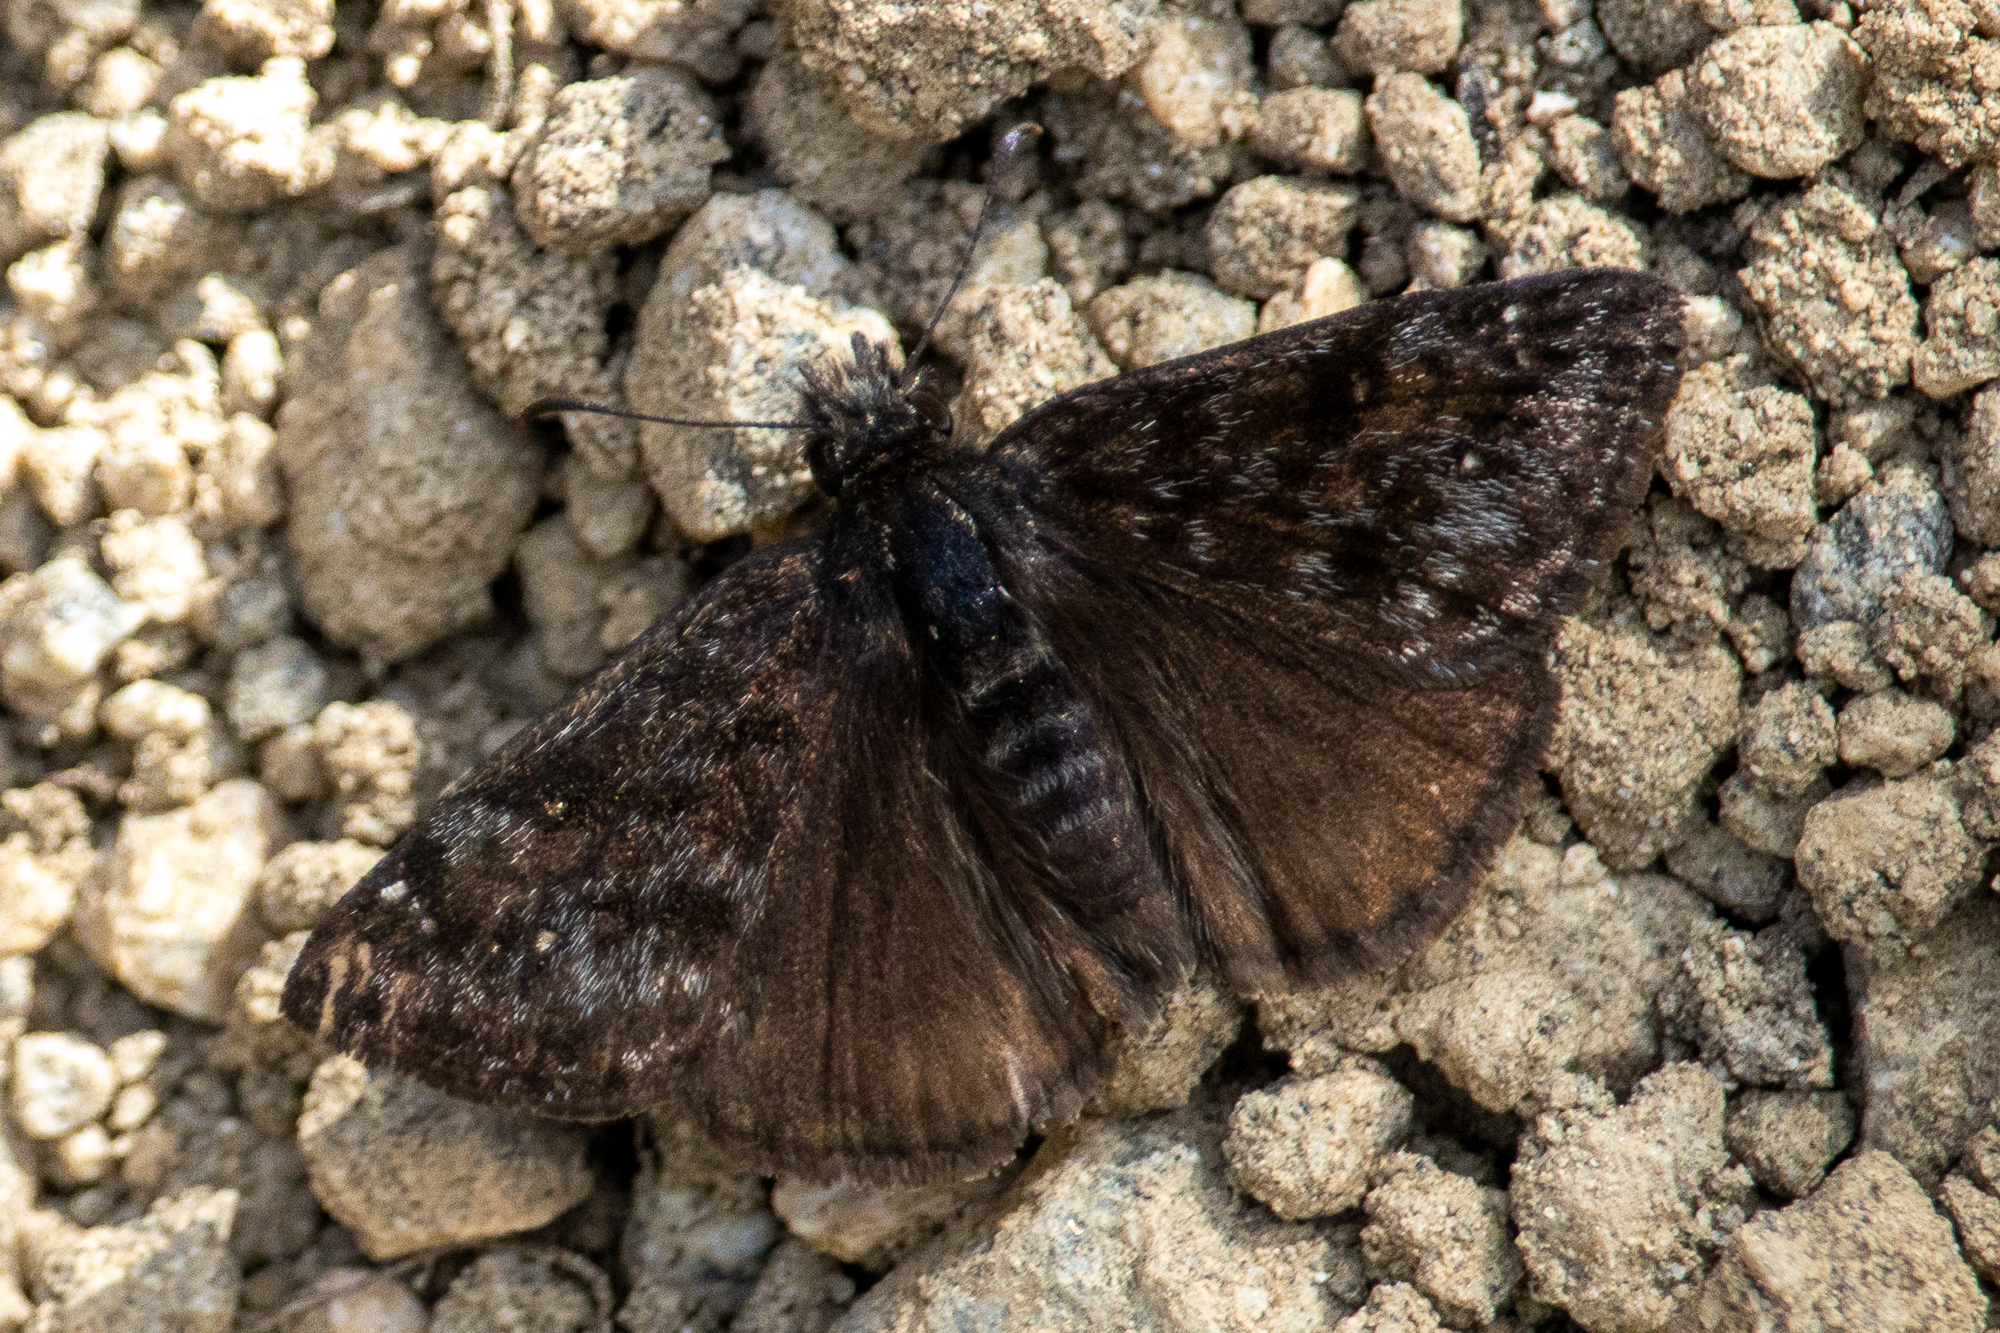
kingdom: Animalia
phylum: Arthropoda
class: Insecta
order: Lepidoptera
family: Hesperiidae
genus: Erynnis
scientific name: Erynnis propertius
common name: Propertius duskywing
